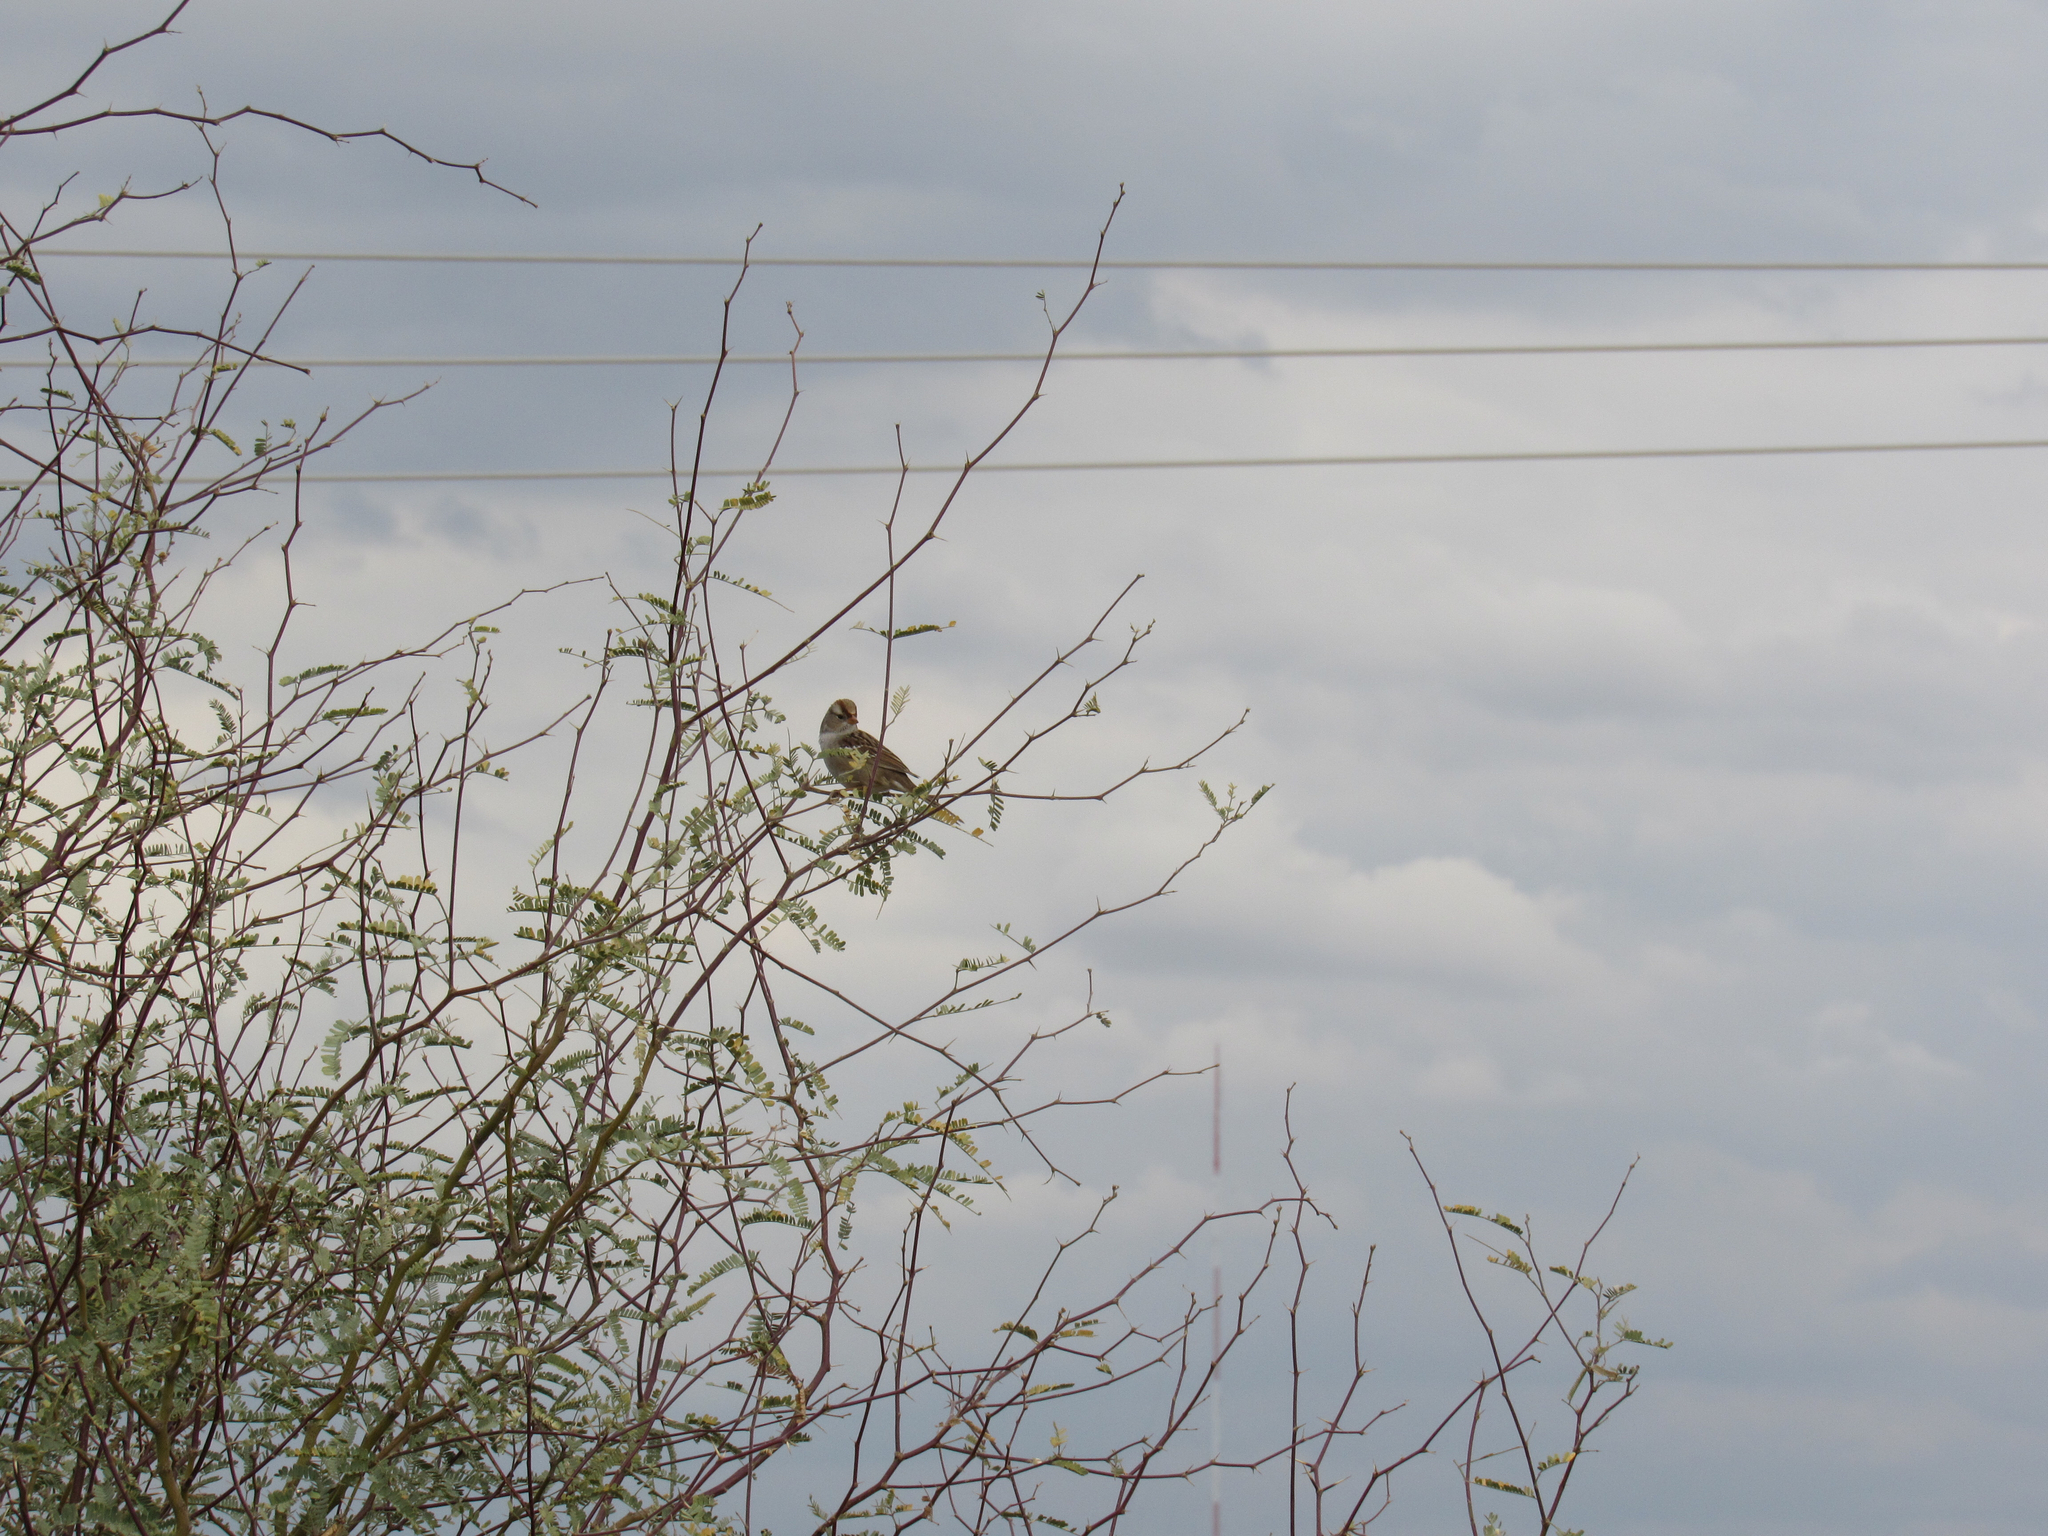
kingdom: Animalia
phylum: Chordata
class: Aves
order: Passeriformes
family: Passerellidae
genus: Zonotrichia
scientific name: Zonotrichia leucophrys
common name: White-crowned sparrow
